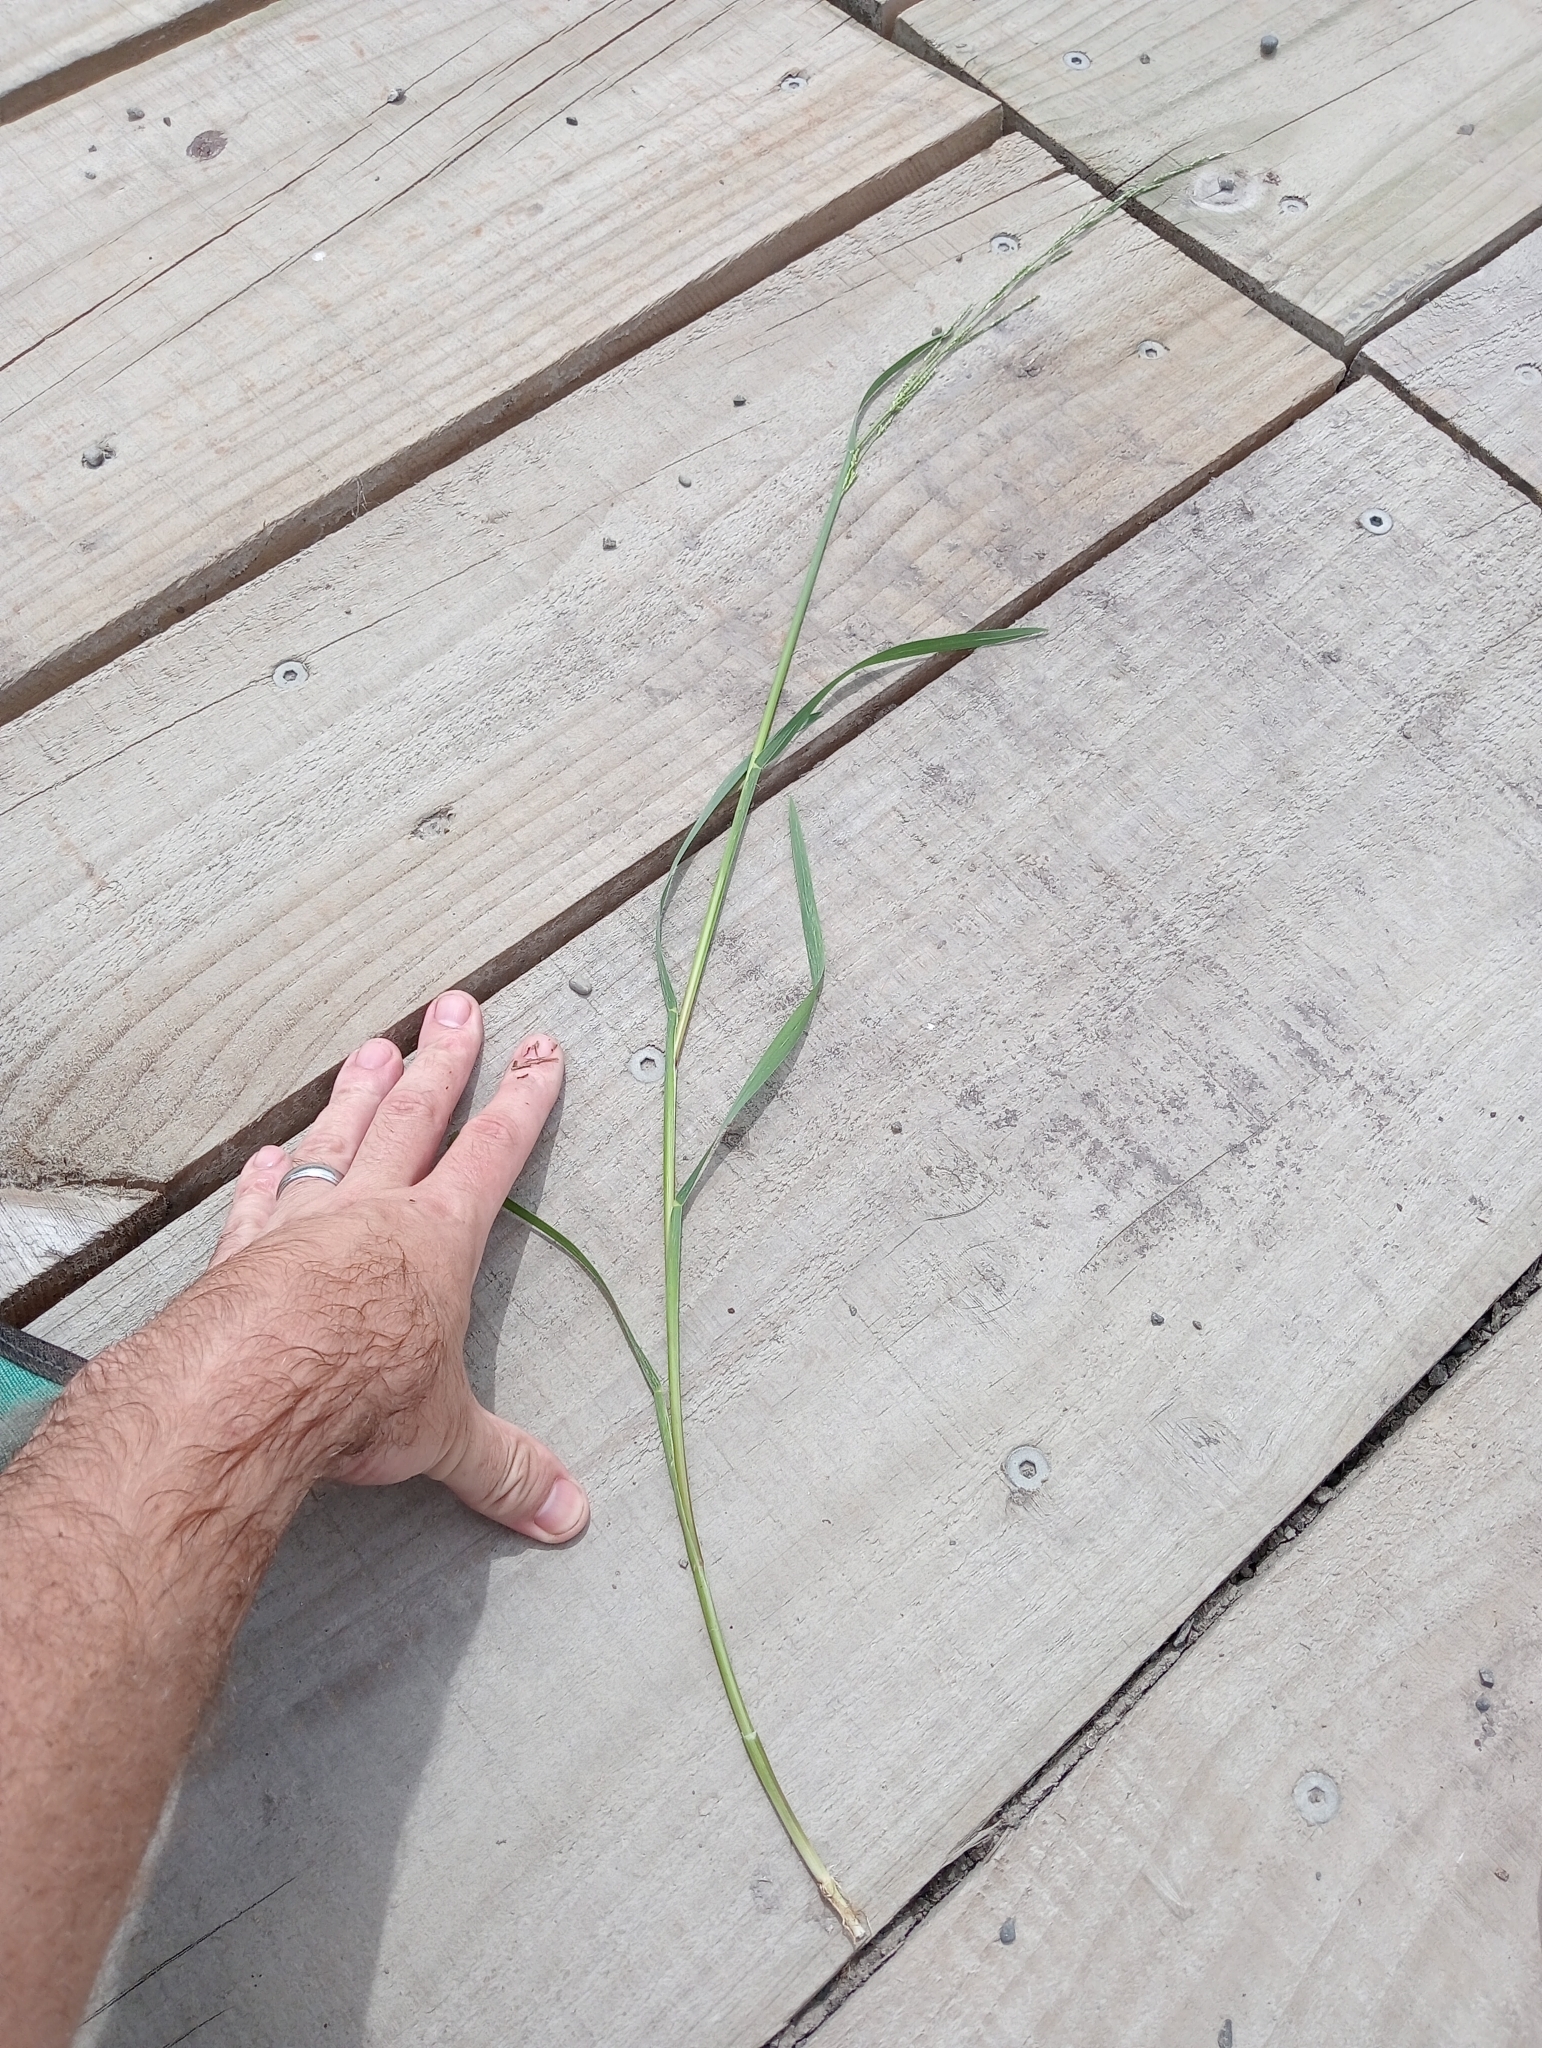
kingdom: Plantae
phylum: Tracheophyta
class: Liliopsida
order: Poales
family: Poaceae
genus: Glyceria
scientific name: Glyceria declinata
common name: Small sweet-grass
